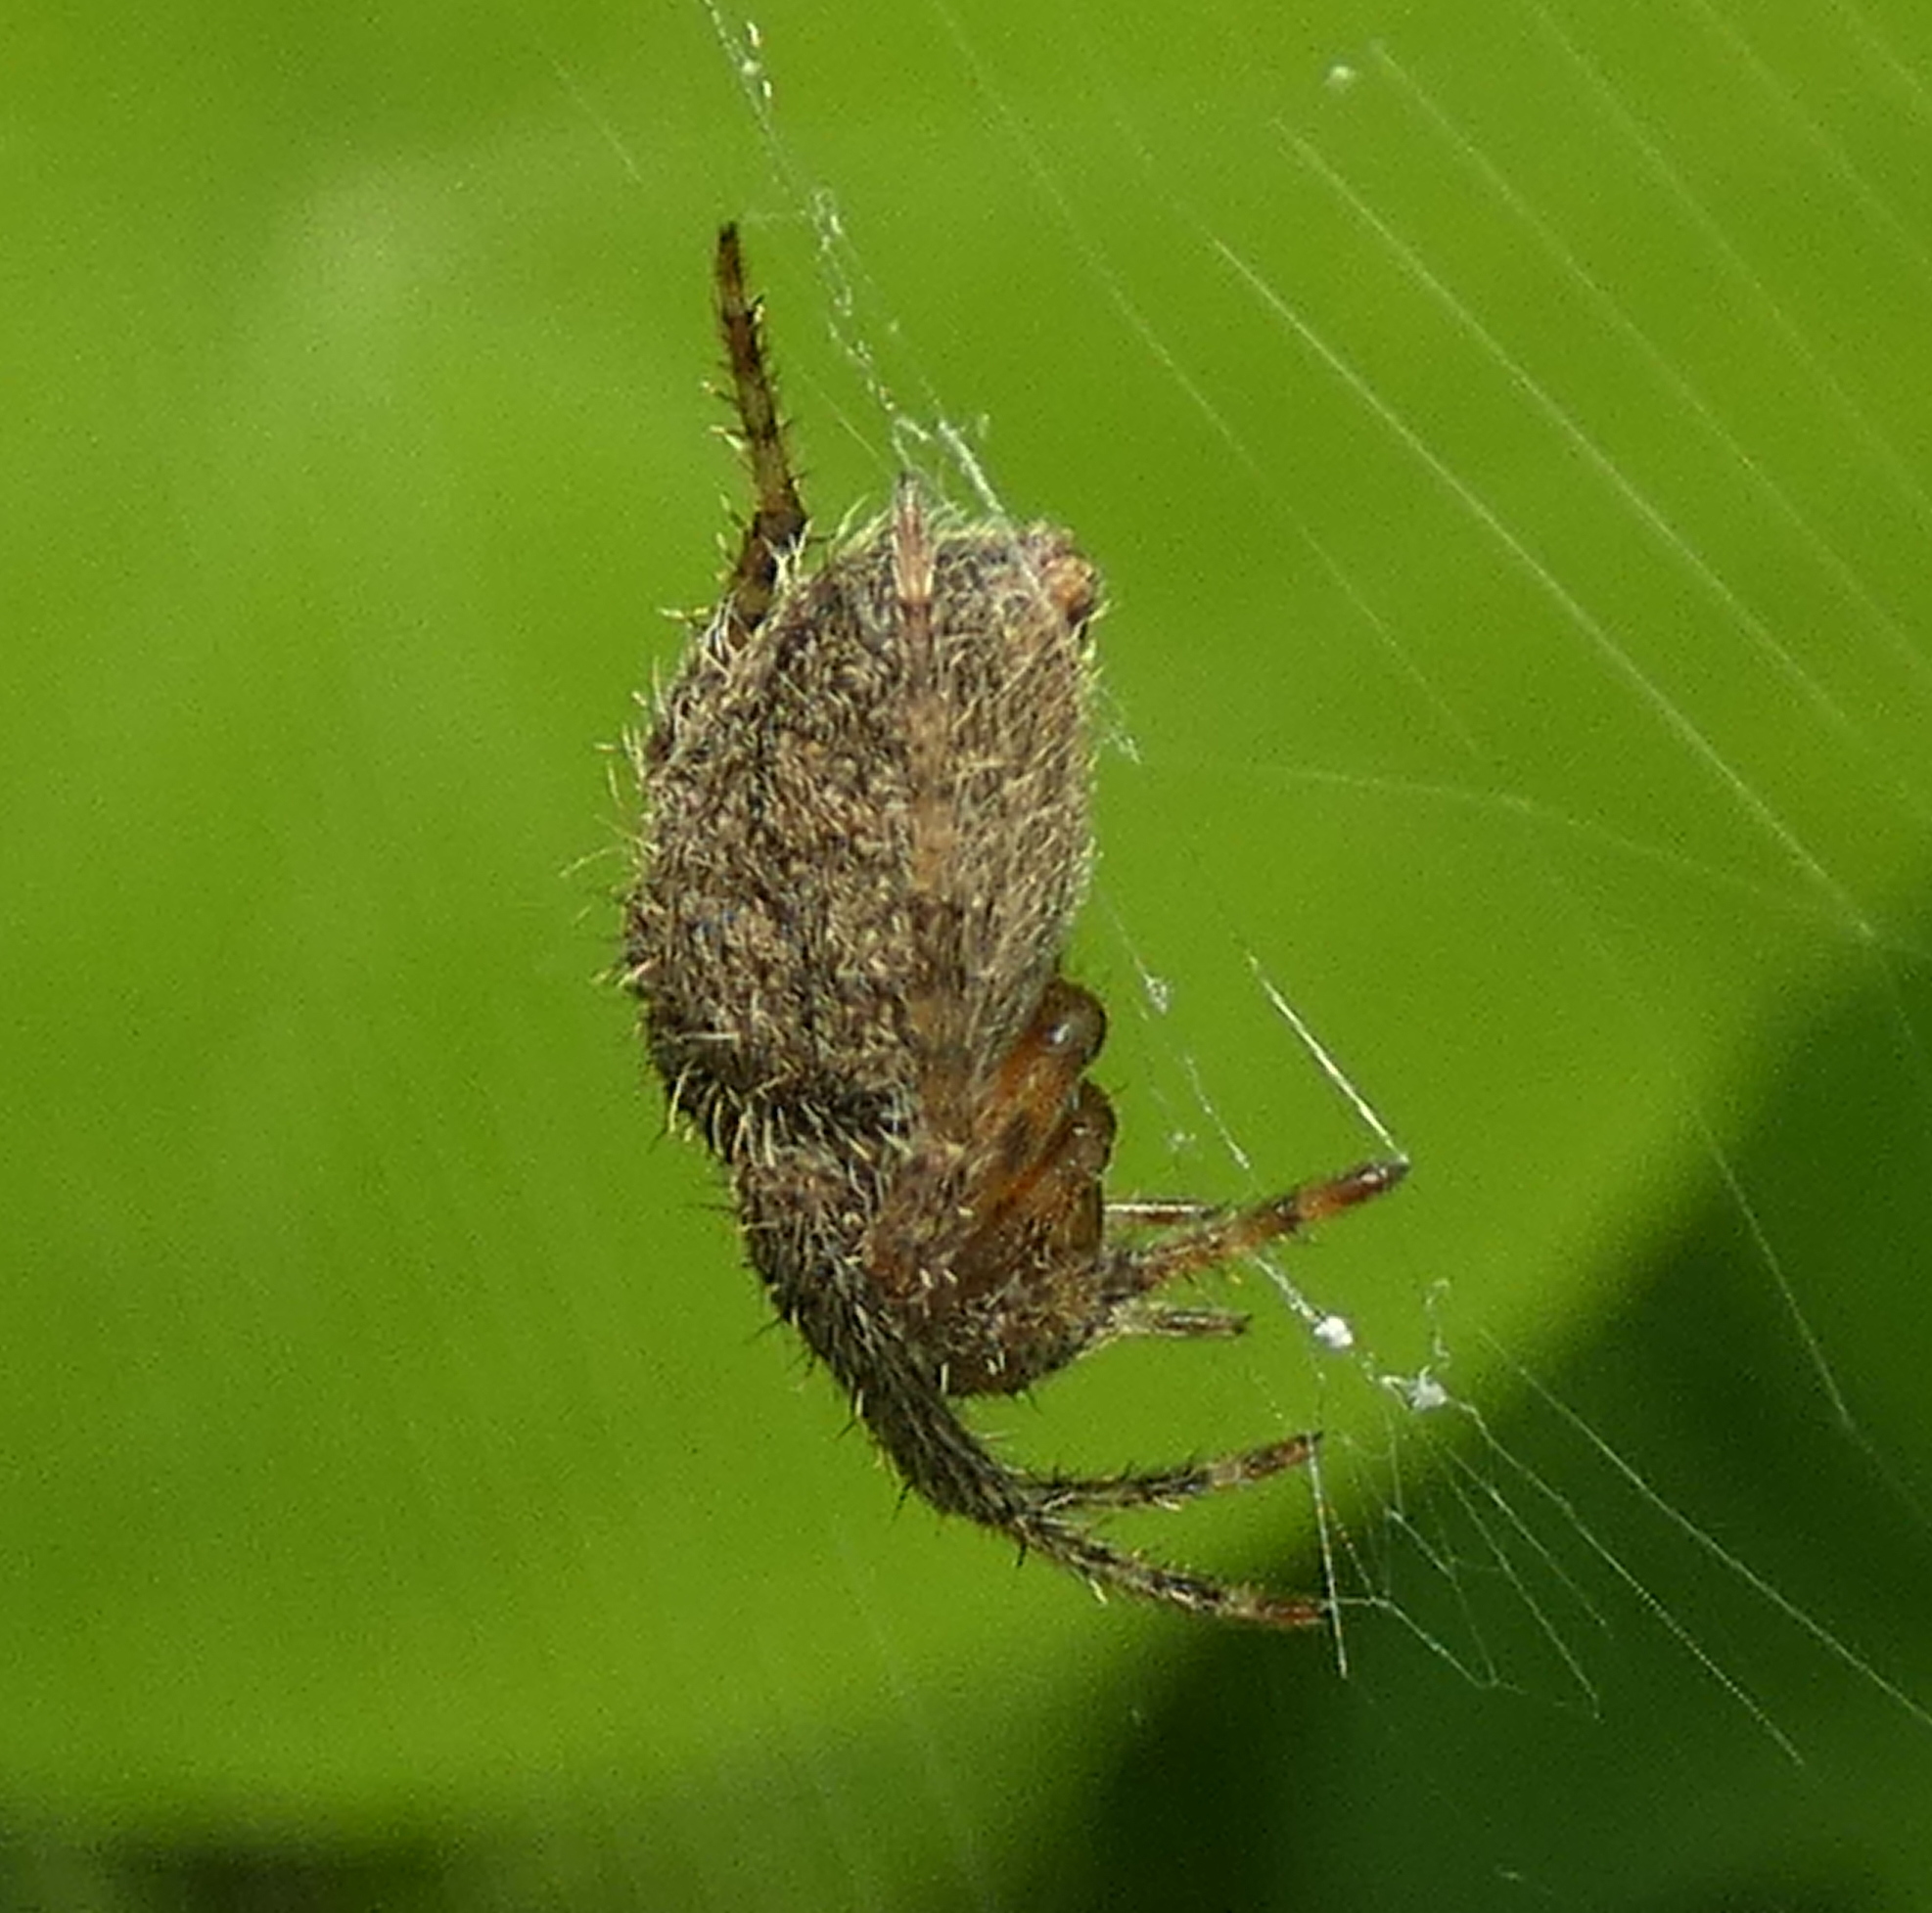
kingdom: Animalia
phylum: Arthropoda
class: Arachnida
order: Araneae
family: Araneidae
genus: Eriophora
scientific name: Eriophora edax
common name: Orb weavers
